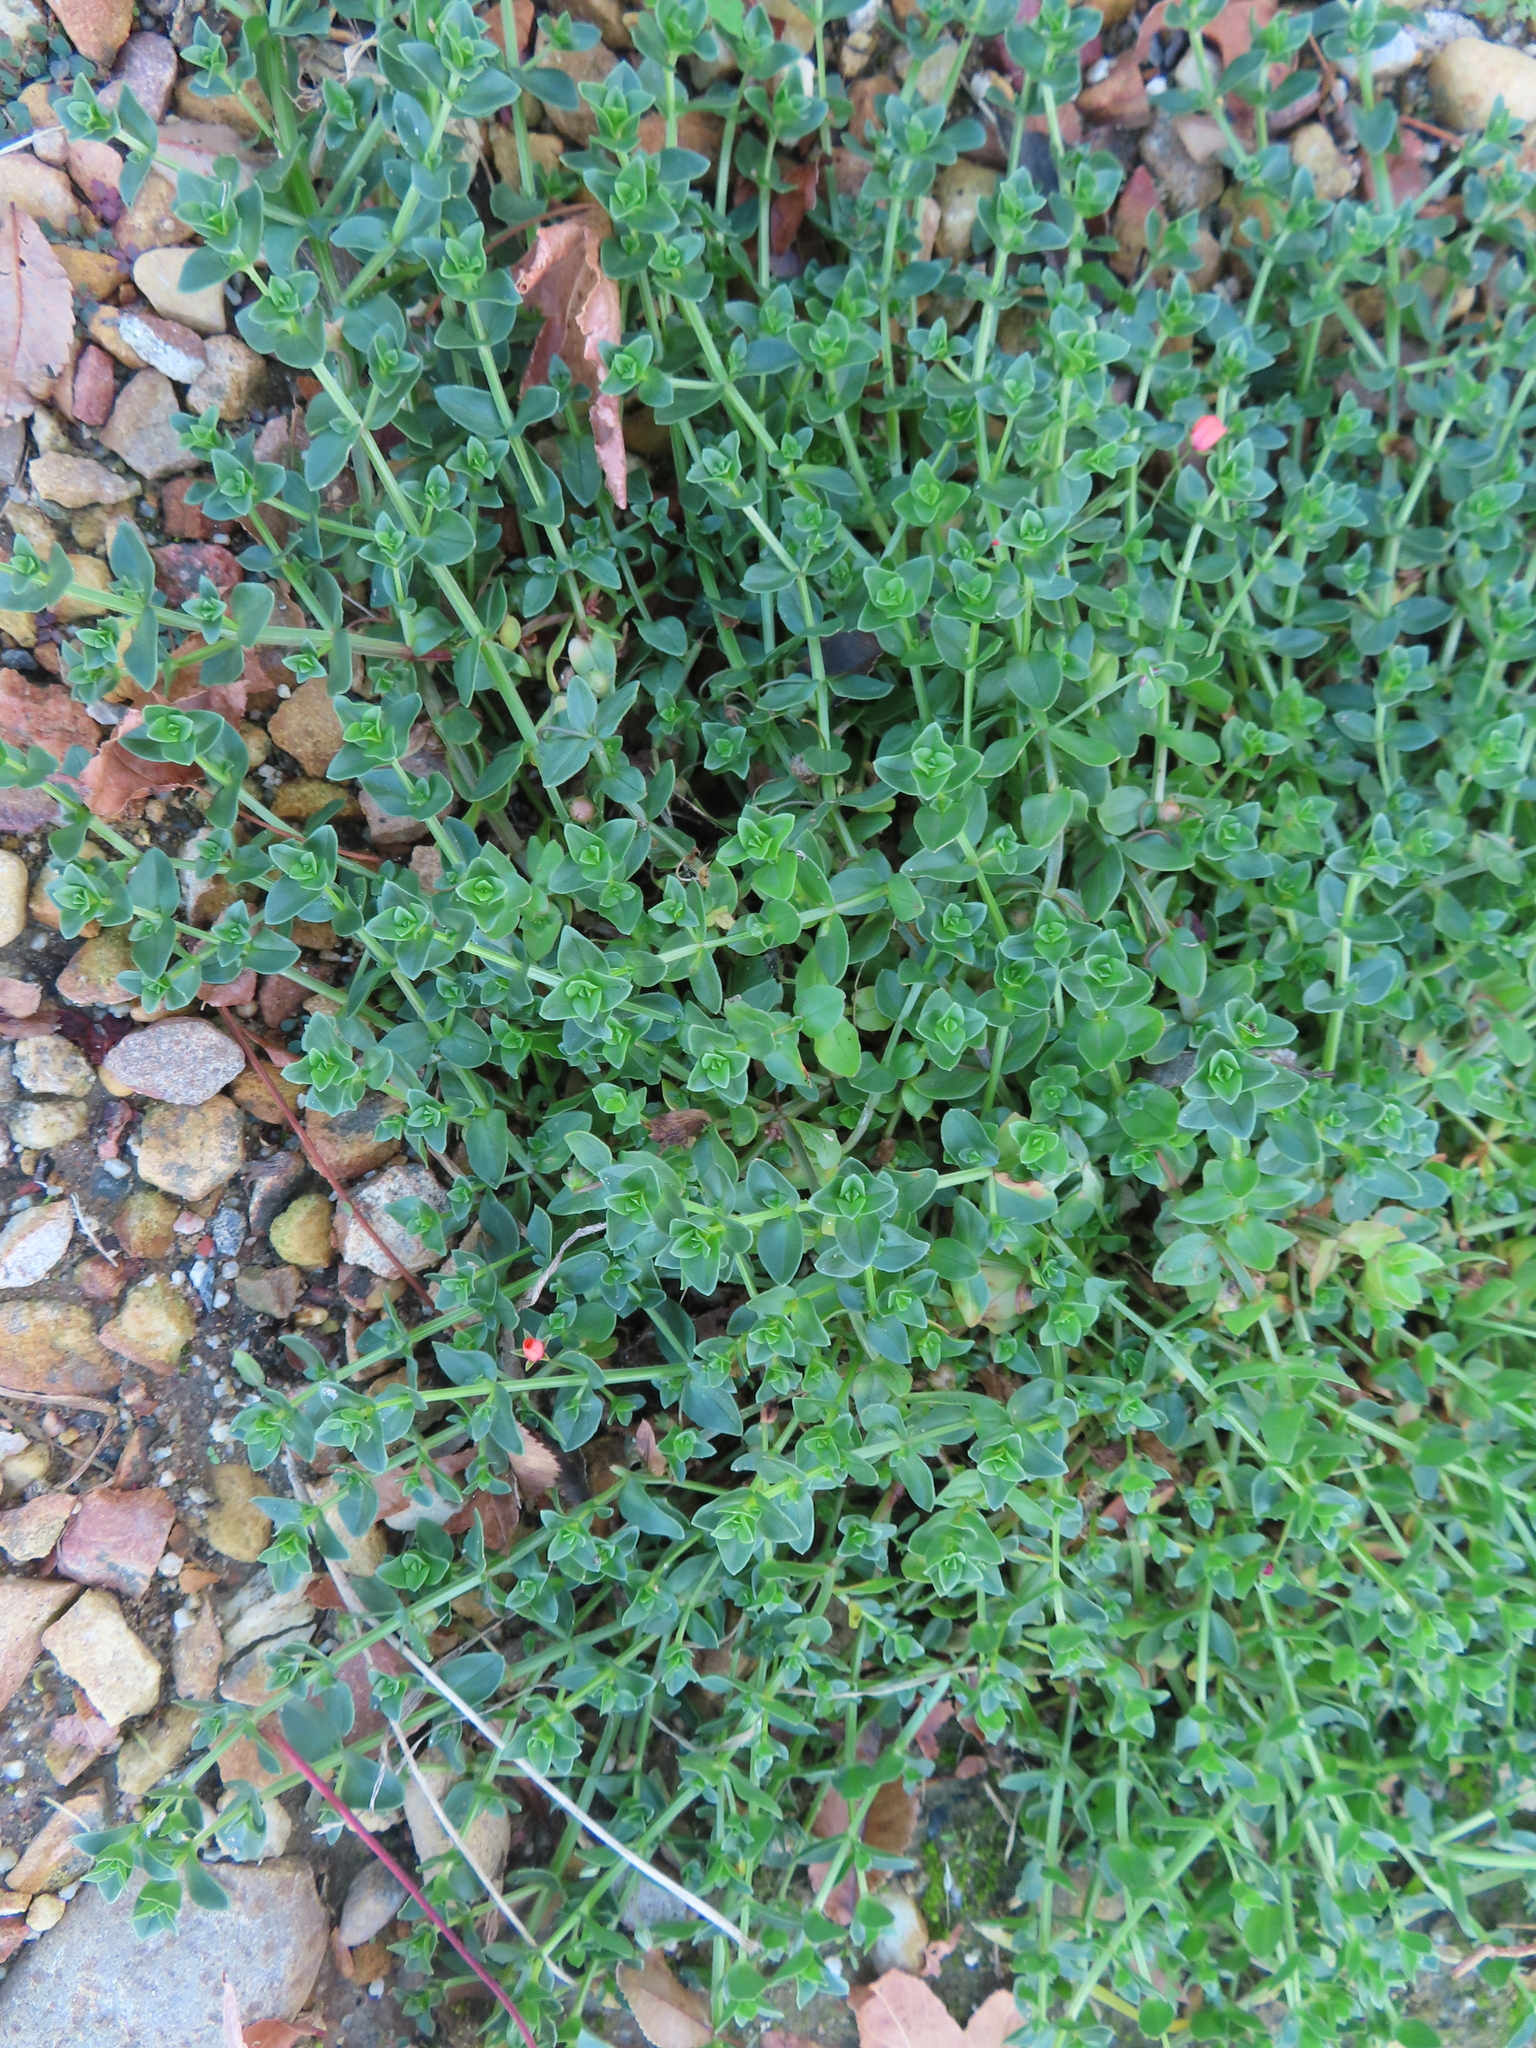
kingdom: Plantae
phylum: Tracheophyta
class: Magnoliopsida
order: Ericales
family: Primulaceae
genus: Lysimachia
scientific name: Lysimachia arvensis
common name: Scarlet pimpernel
